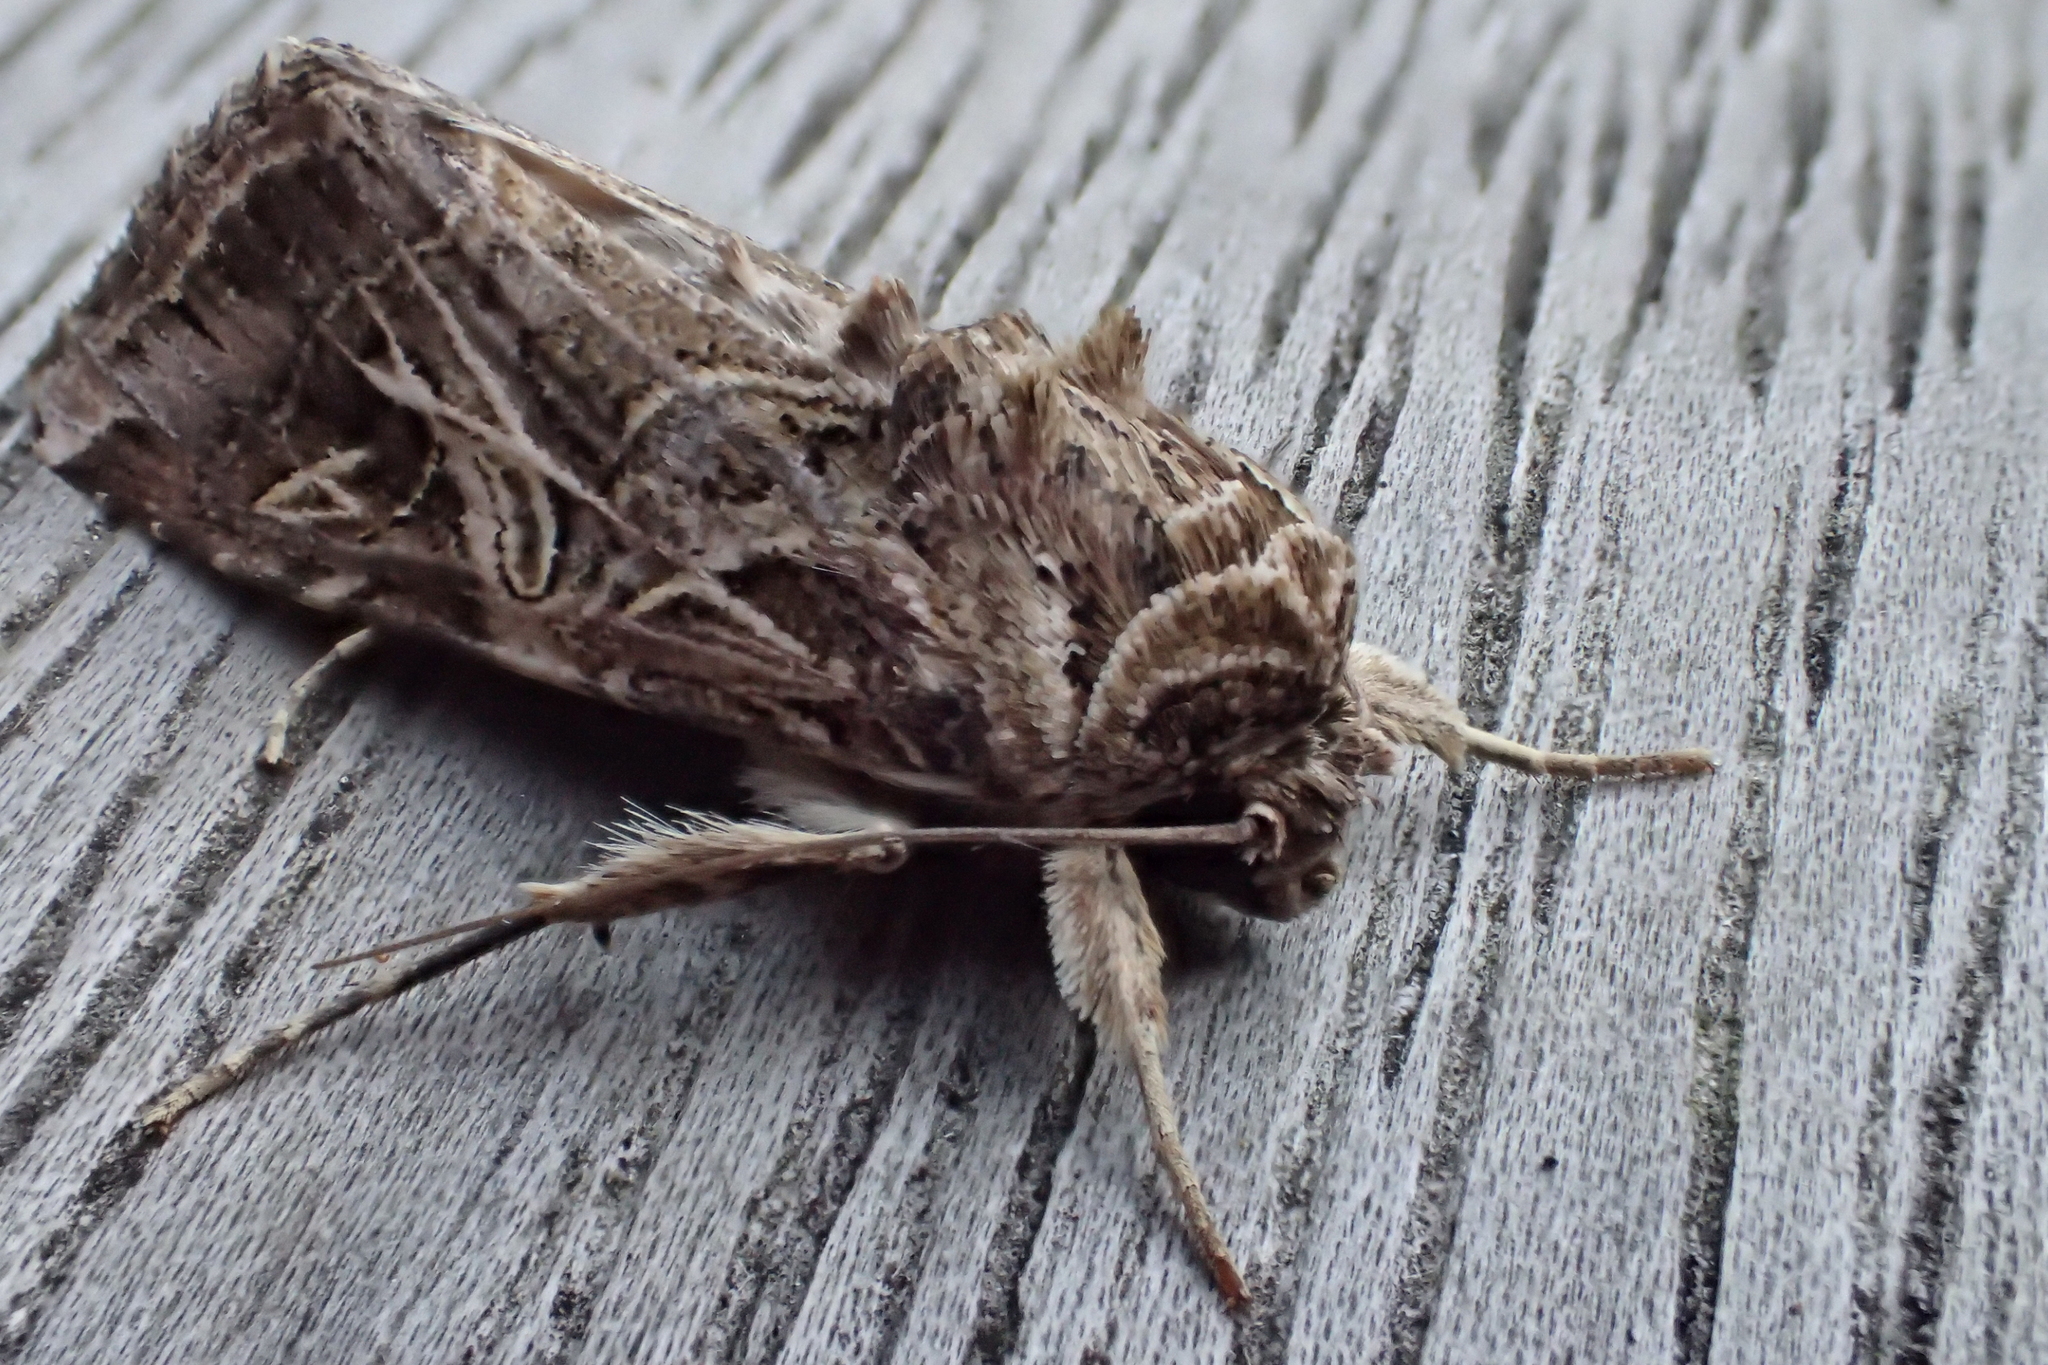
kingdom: Animalia
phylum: Arthropoda
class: Insecta
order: Lepidoptera
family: Noctuidae
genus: Spodoptera
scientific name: Spodoptera litura
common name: Asian cotton leafworm
